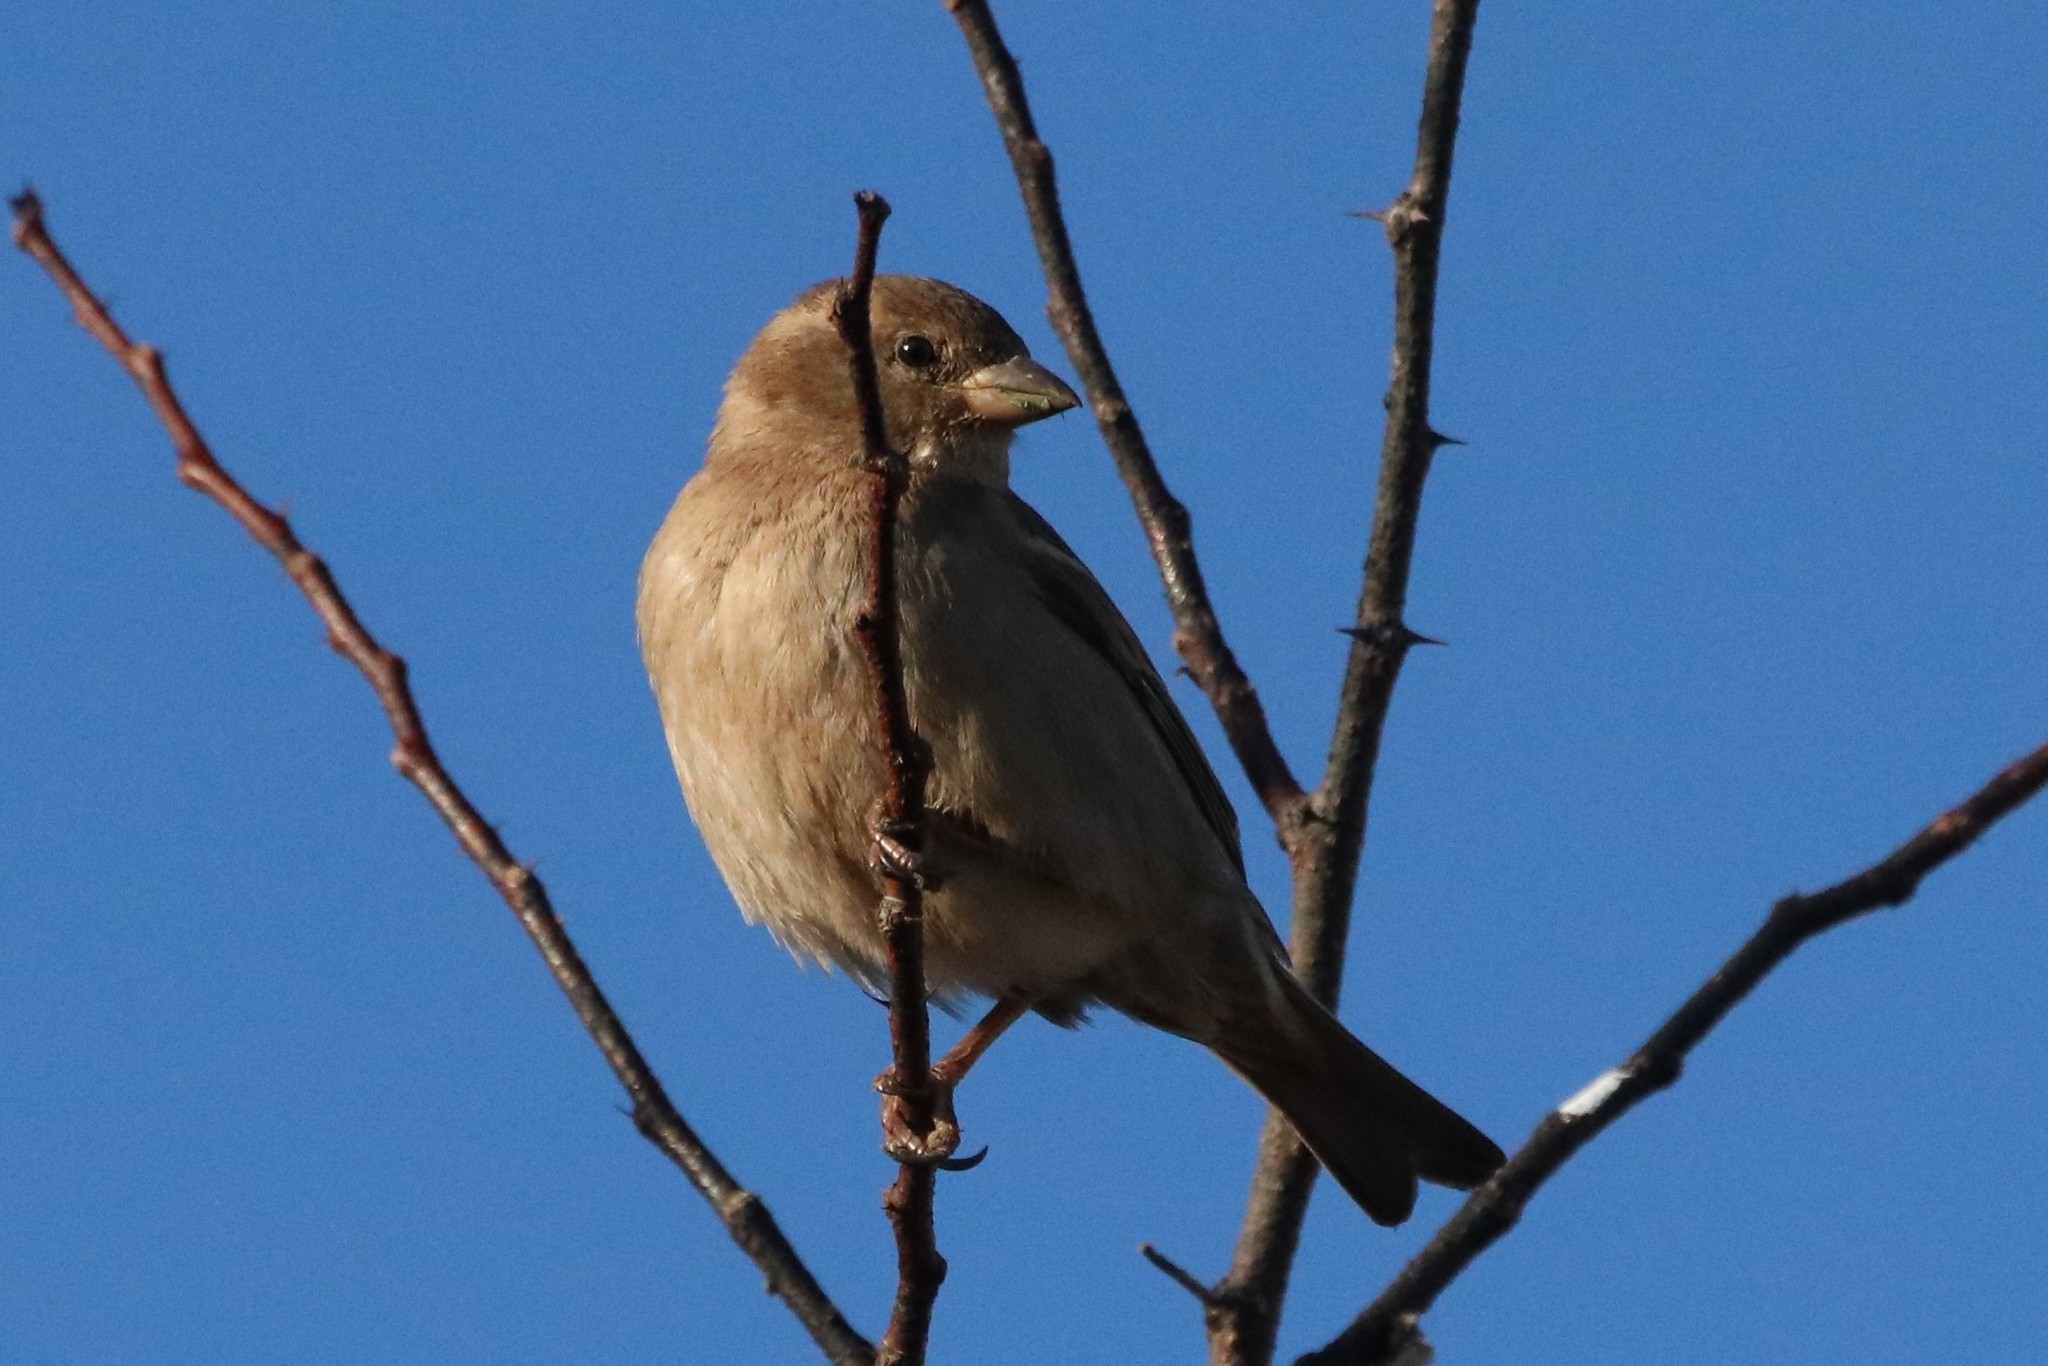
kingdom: Animalia
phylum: Chordata
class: Aves
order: Passeriformes
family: Passeridae
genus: Passer
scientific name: Passer domesticus
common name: House sparrow
